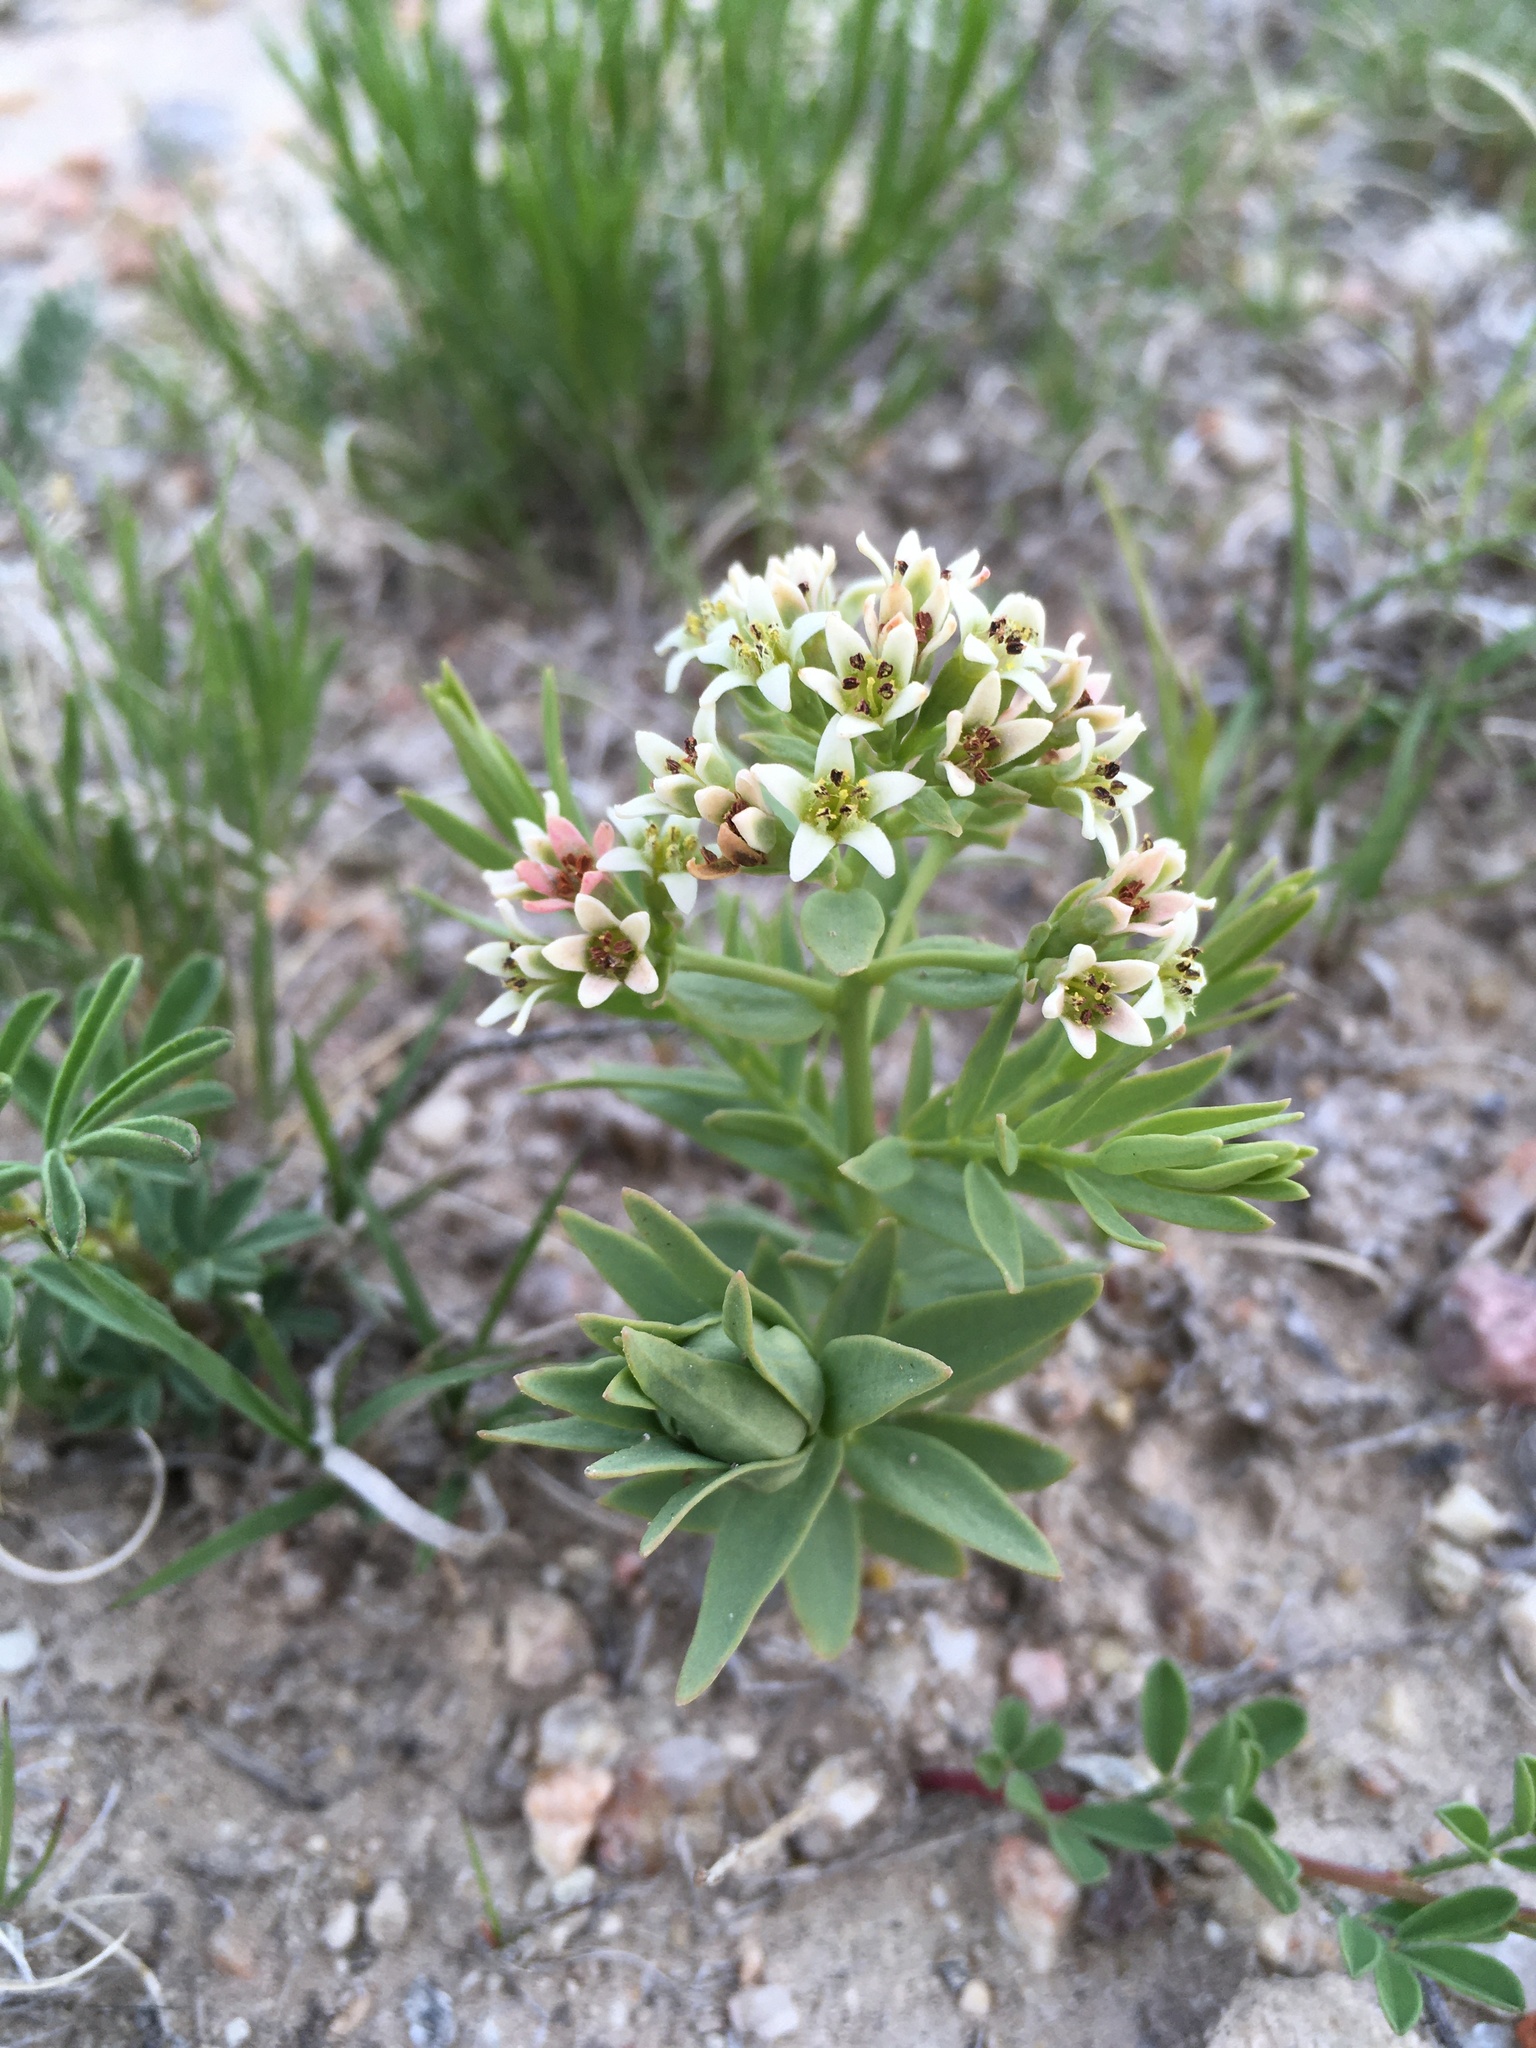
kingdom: Plantae
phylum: Tracheophyta
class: Magnoliopsida
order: Santalales
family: Comandraceae
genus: Comandra
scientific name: Comandra umbellata
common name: Bastard toadflax
